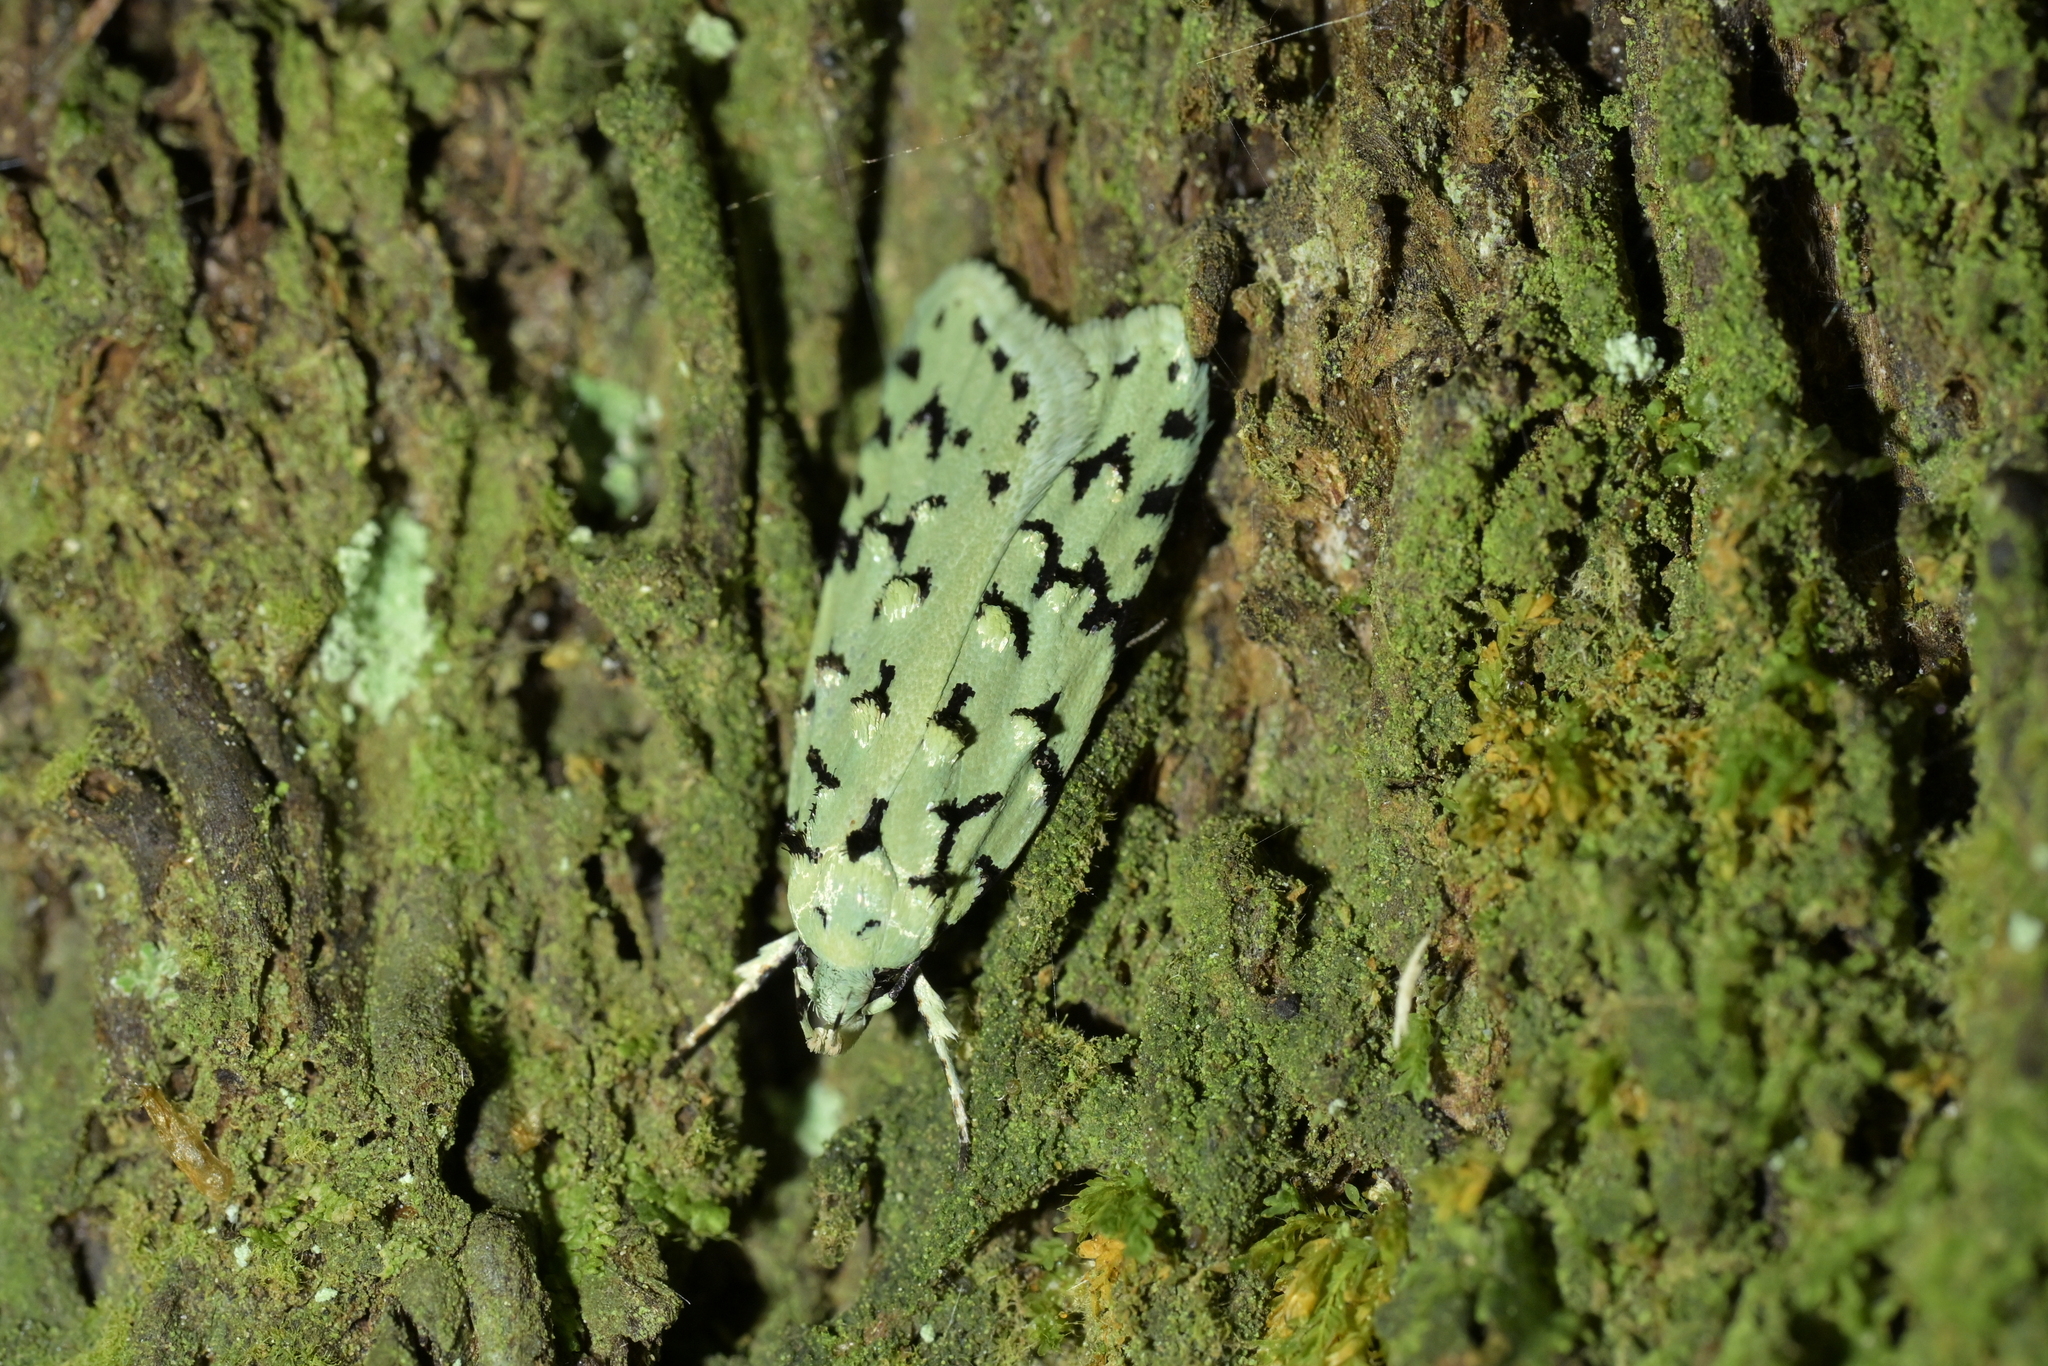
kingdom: Animalia
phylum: Arthropoda
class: Insecta
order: Lepidoptera
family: Oecophoridae
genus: Izatha
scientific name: Izatha peroneanella
